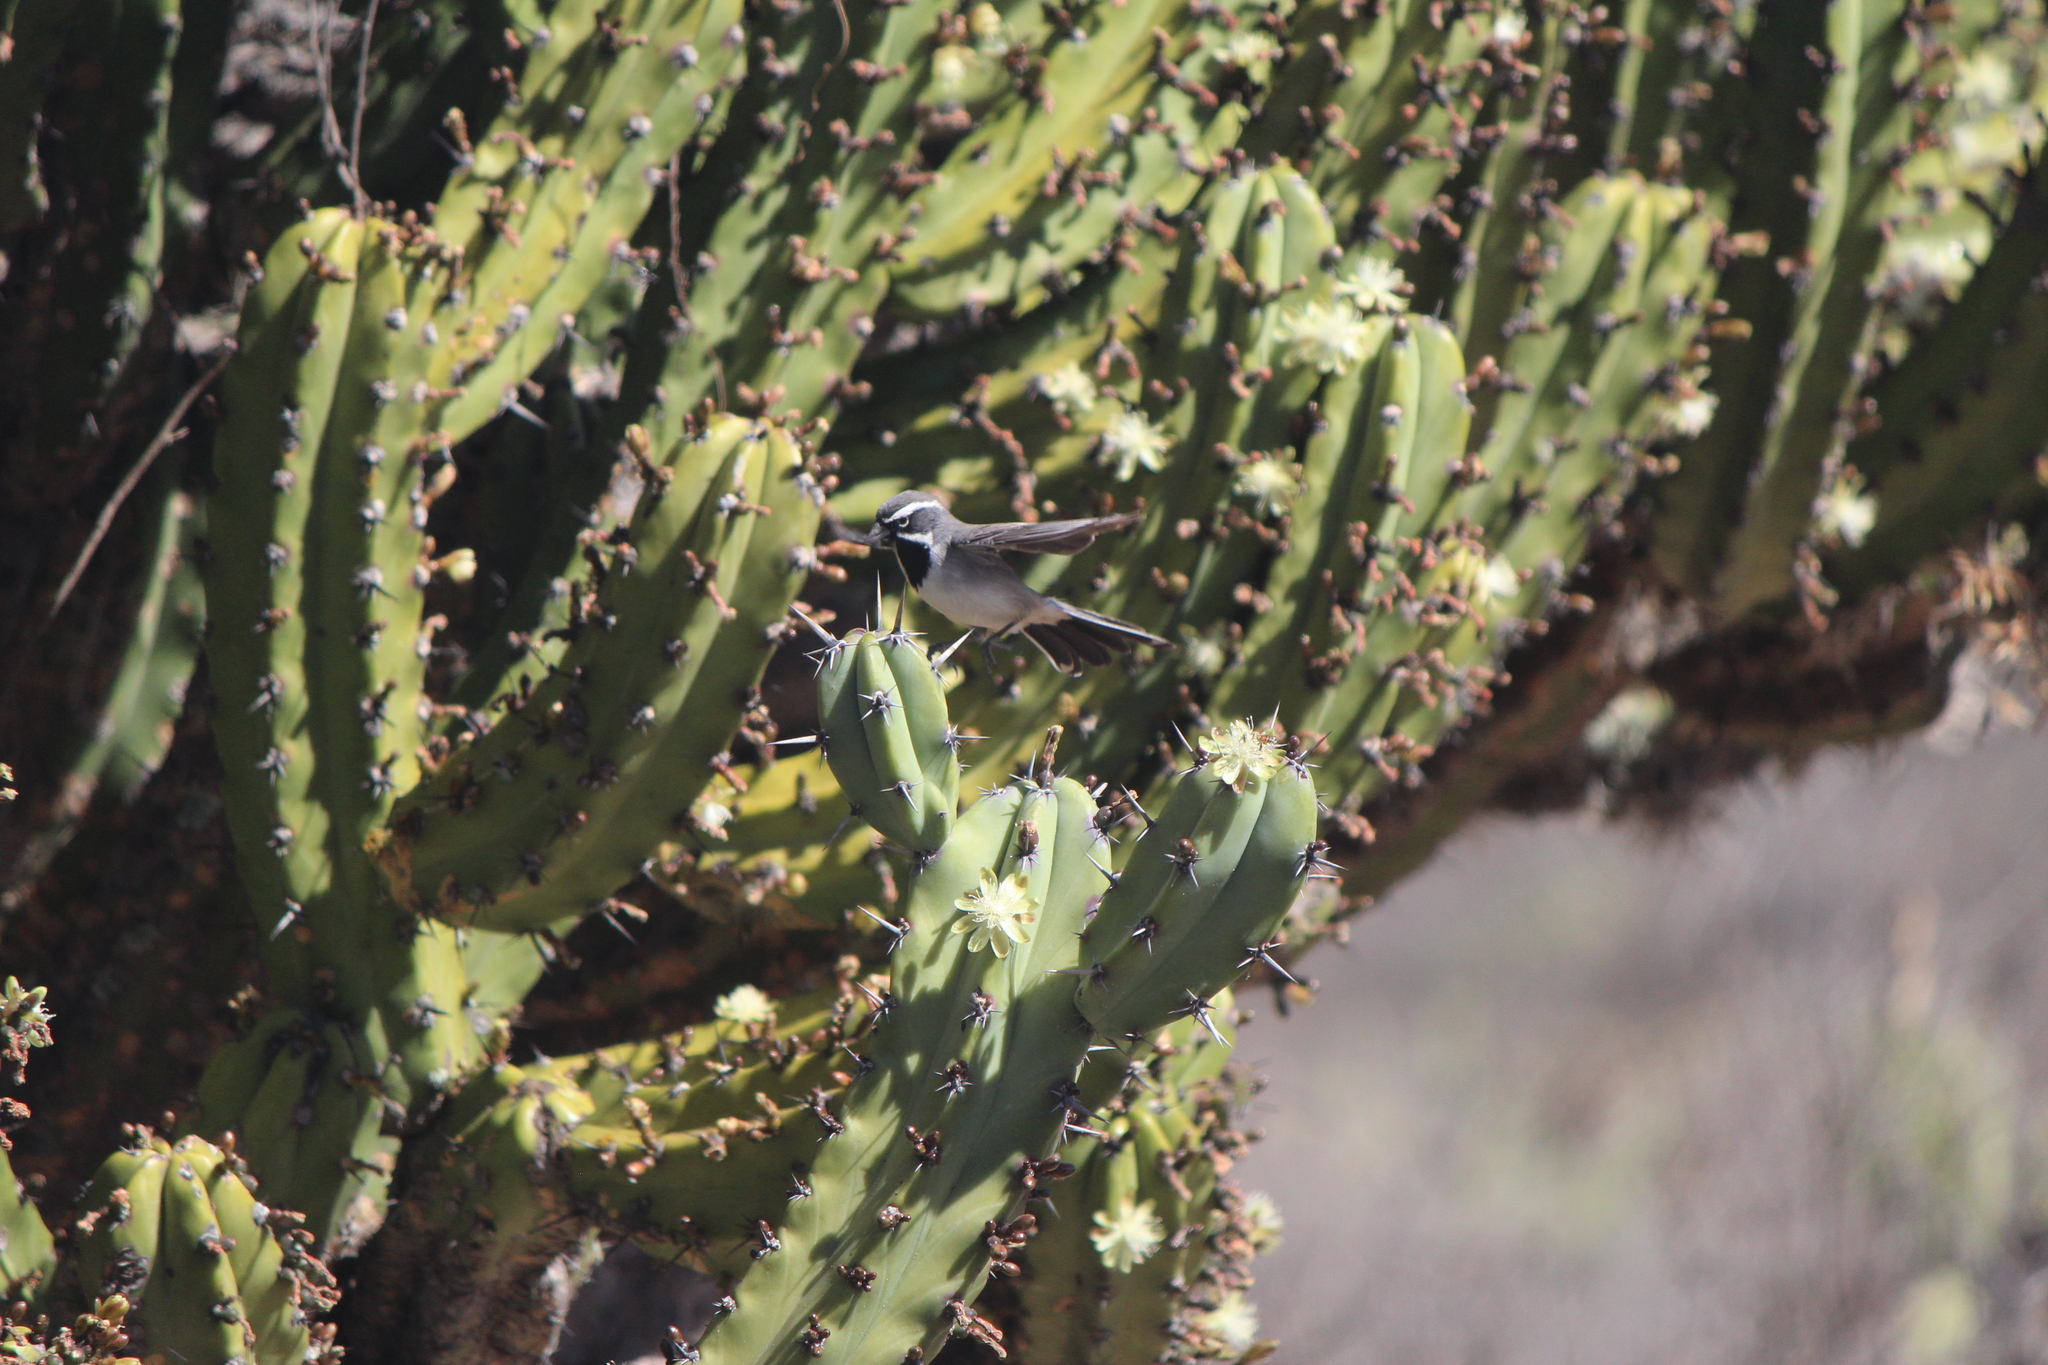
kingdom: Animalia
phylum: Chordata
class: Aves
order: Passeriformes
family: Passerellidae
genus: Amphispiza
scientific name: Amphispiza bilineata
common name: Black-throated sparrow
